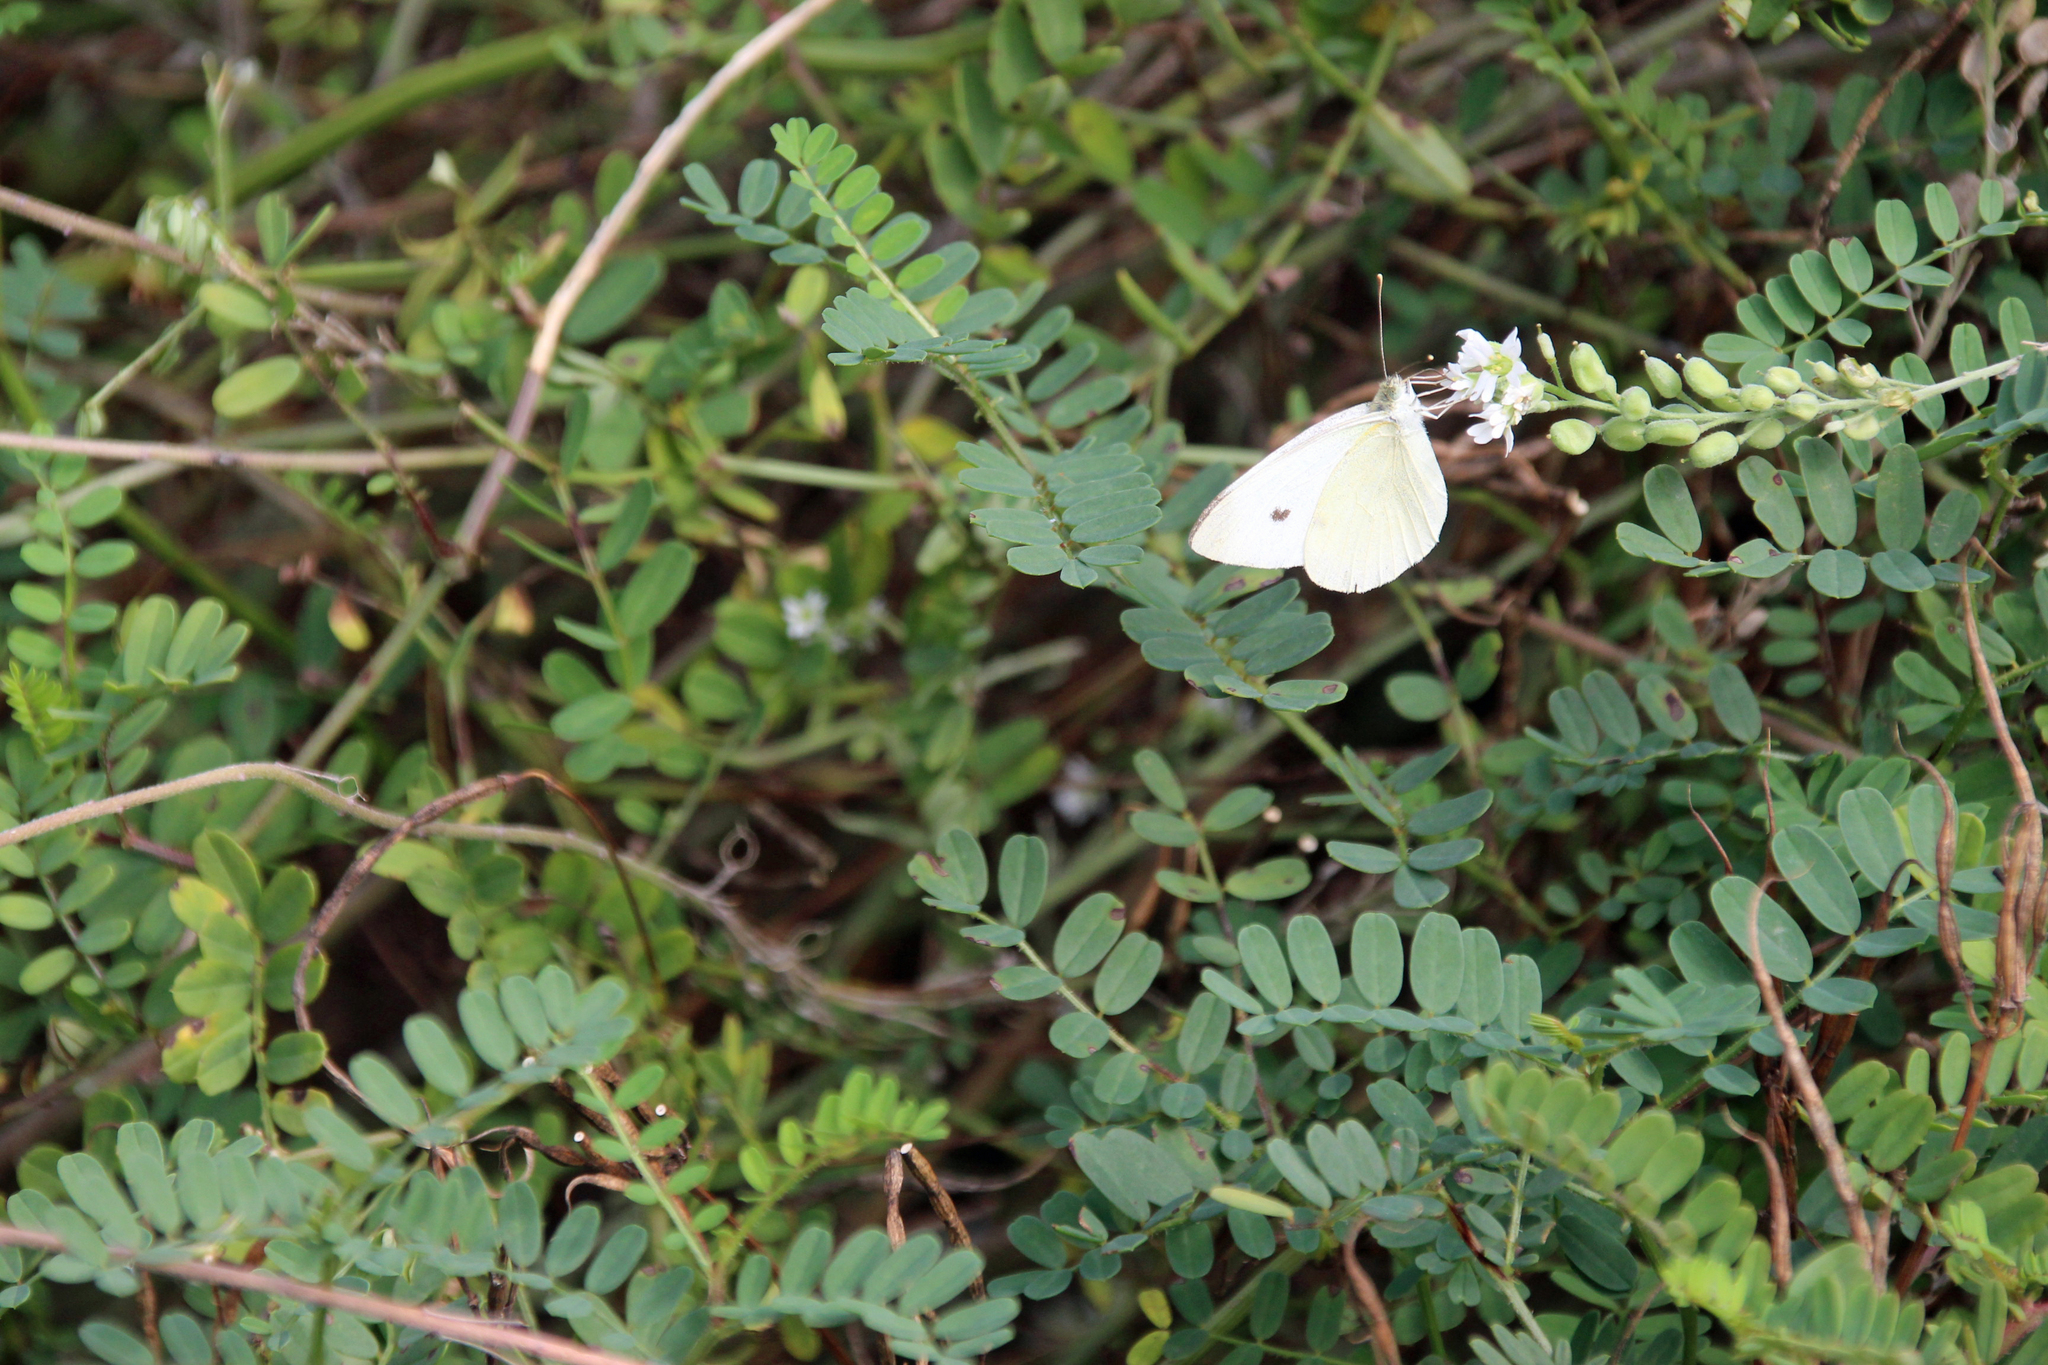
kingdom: Animalia
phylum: Arthropoda
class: Insecta
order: Lepidoptera
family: Pieridae
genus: Pieris
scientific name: Pieris rapae
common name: Small white
